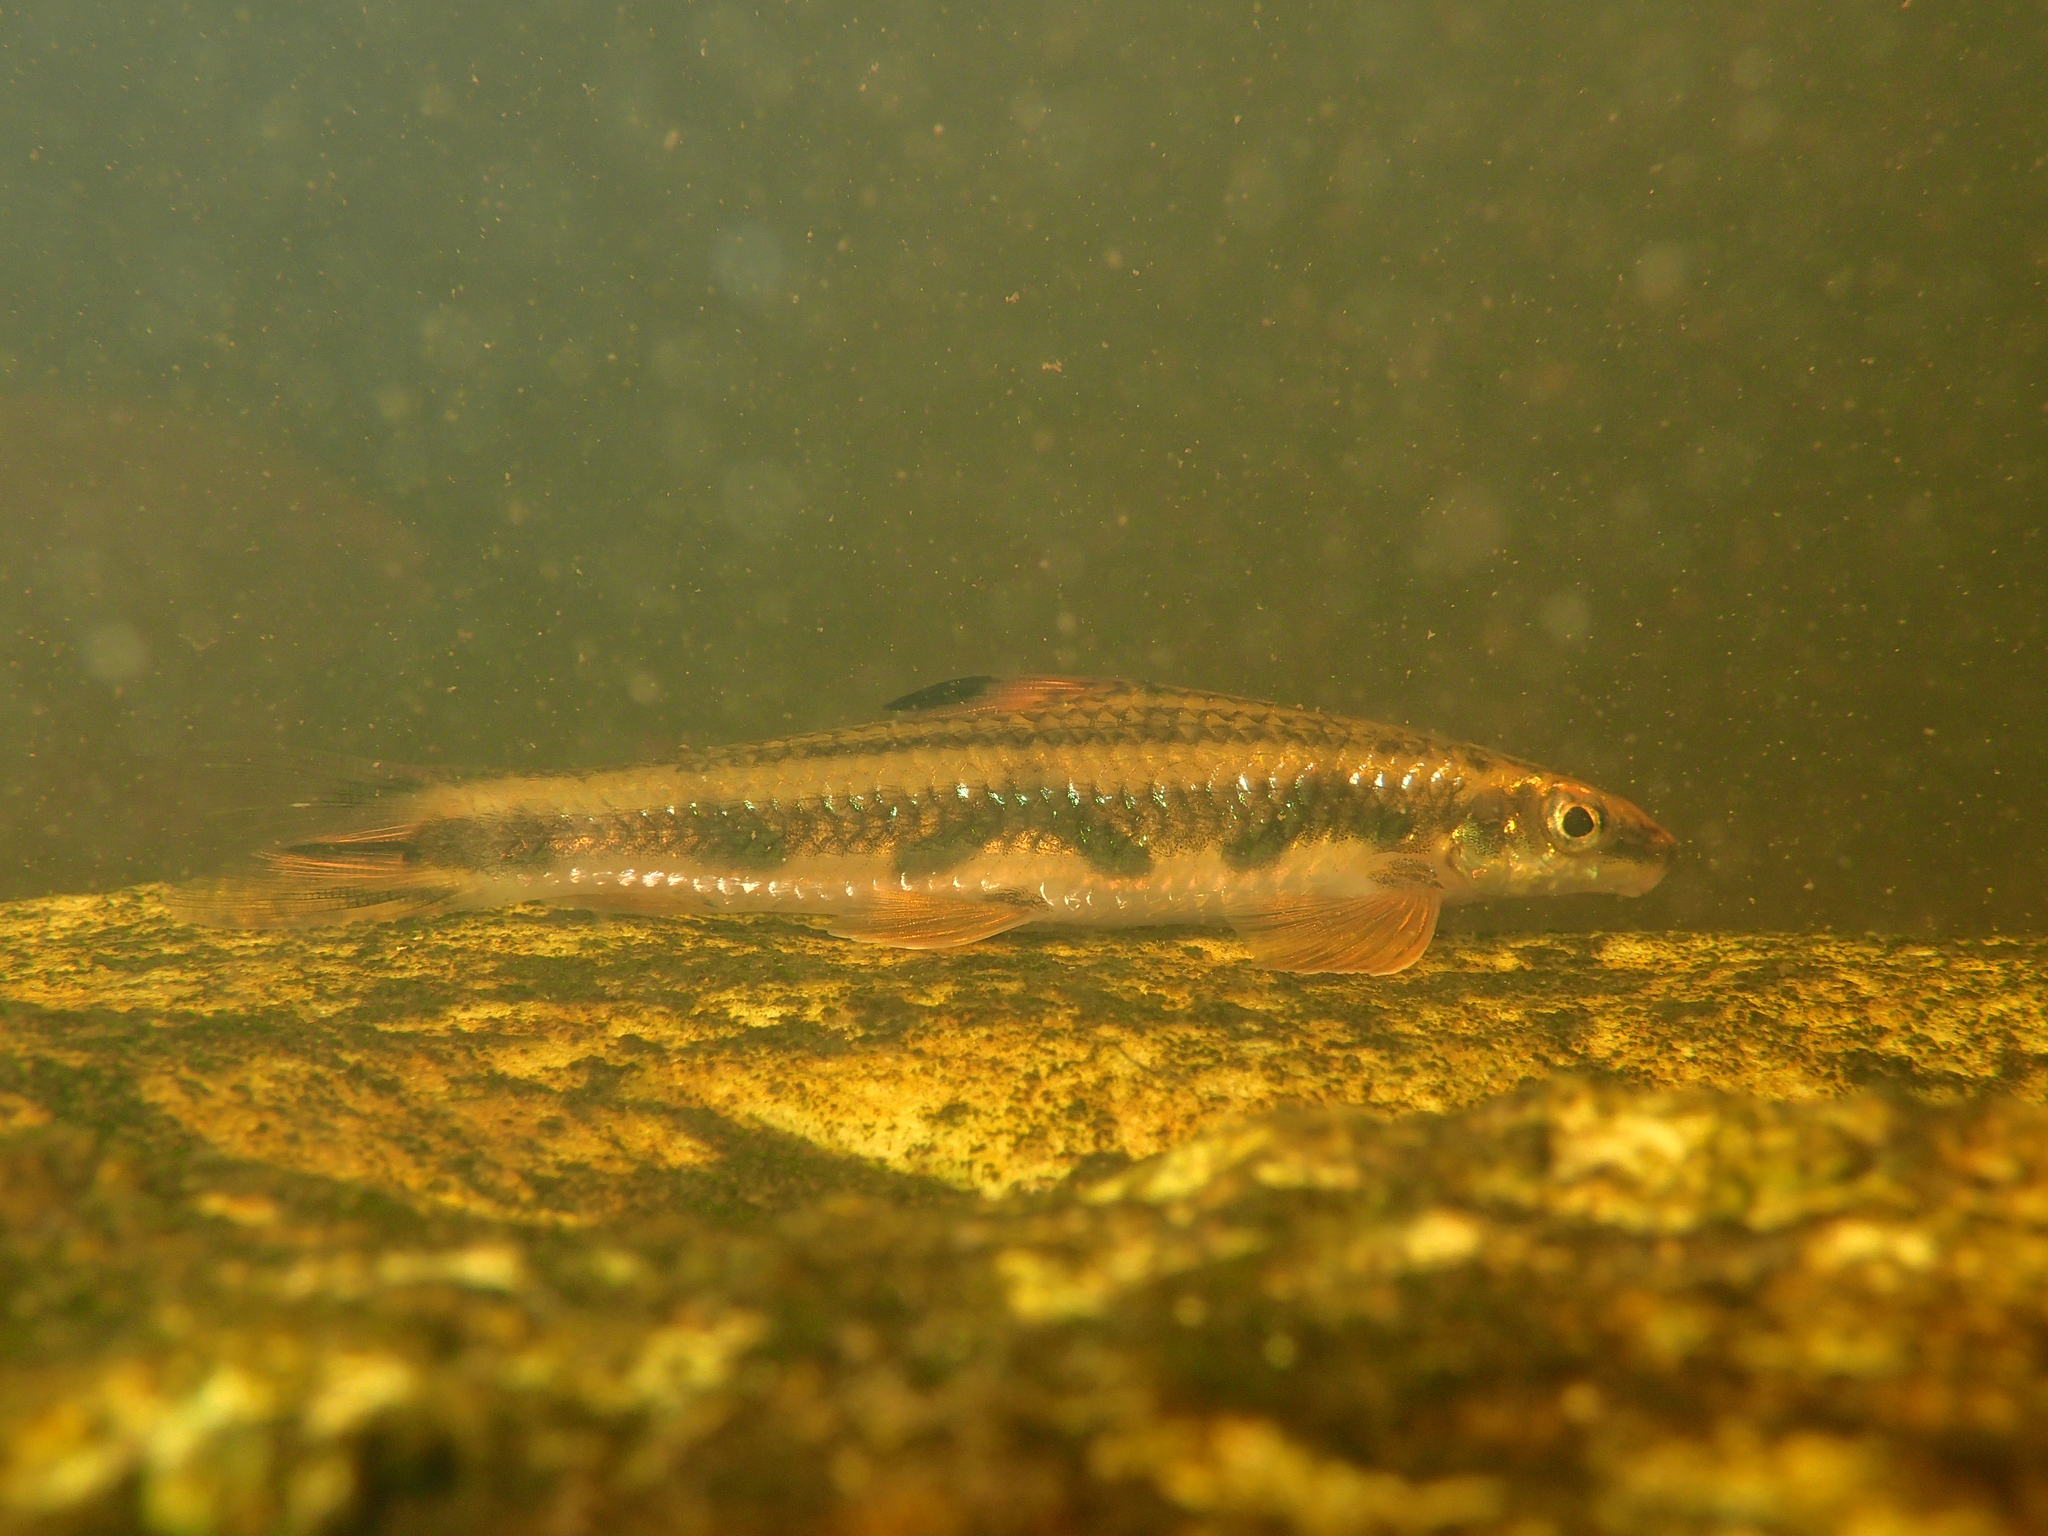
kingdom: Animalia
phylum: Chordata
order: Characiformes
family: Parodontidae
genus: Parodon
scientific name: Parodon guyanensis
